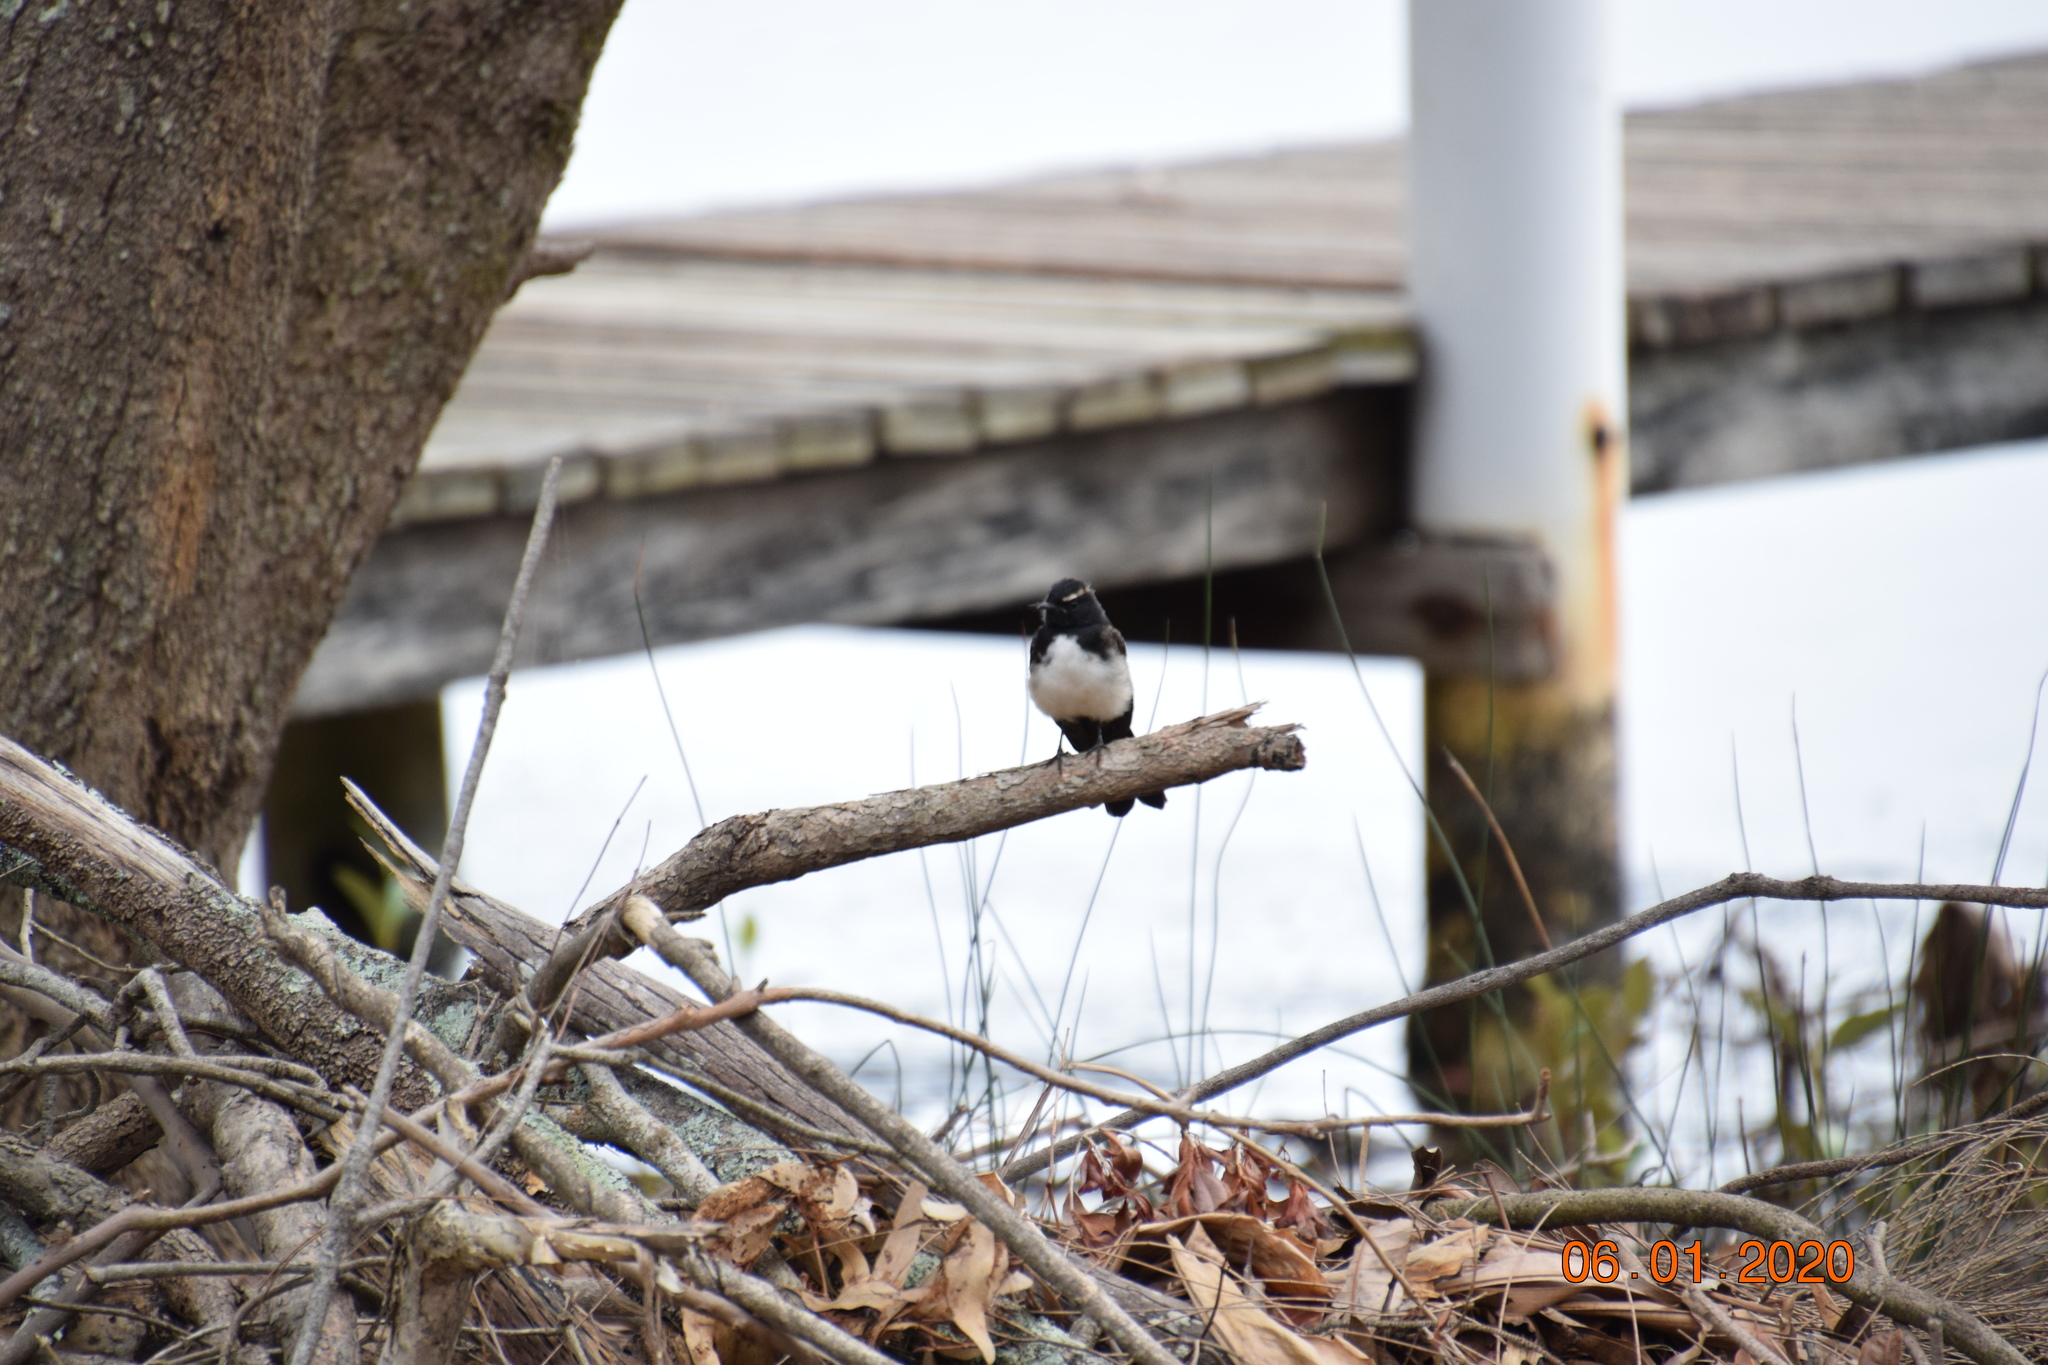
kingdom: Animalia
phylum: Chordata
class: Aves
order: Passeriformes
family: Rhipiduridae
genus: Rhipidura
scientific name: Rhipidura leucophrys
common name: Willie wagtail
